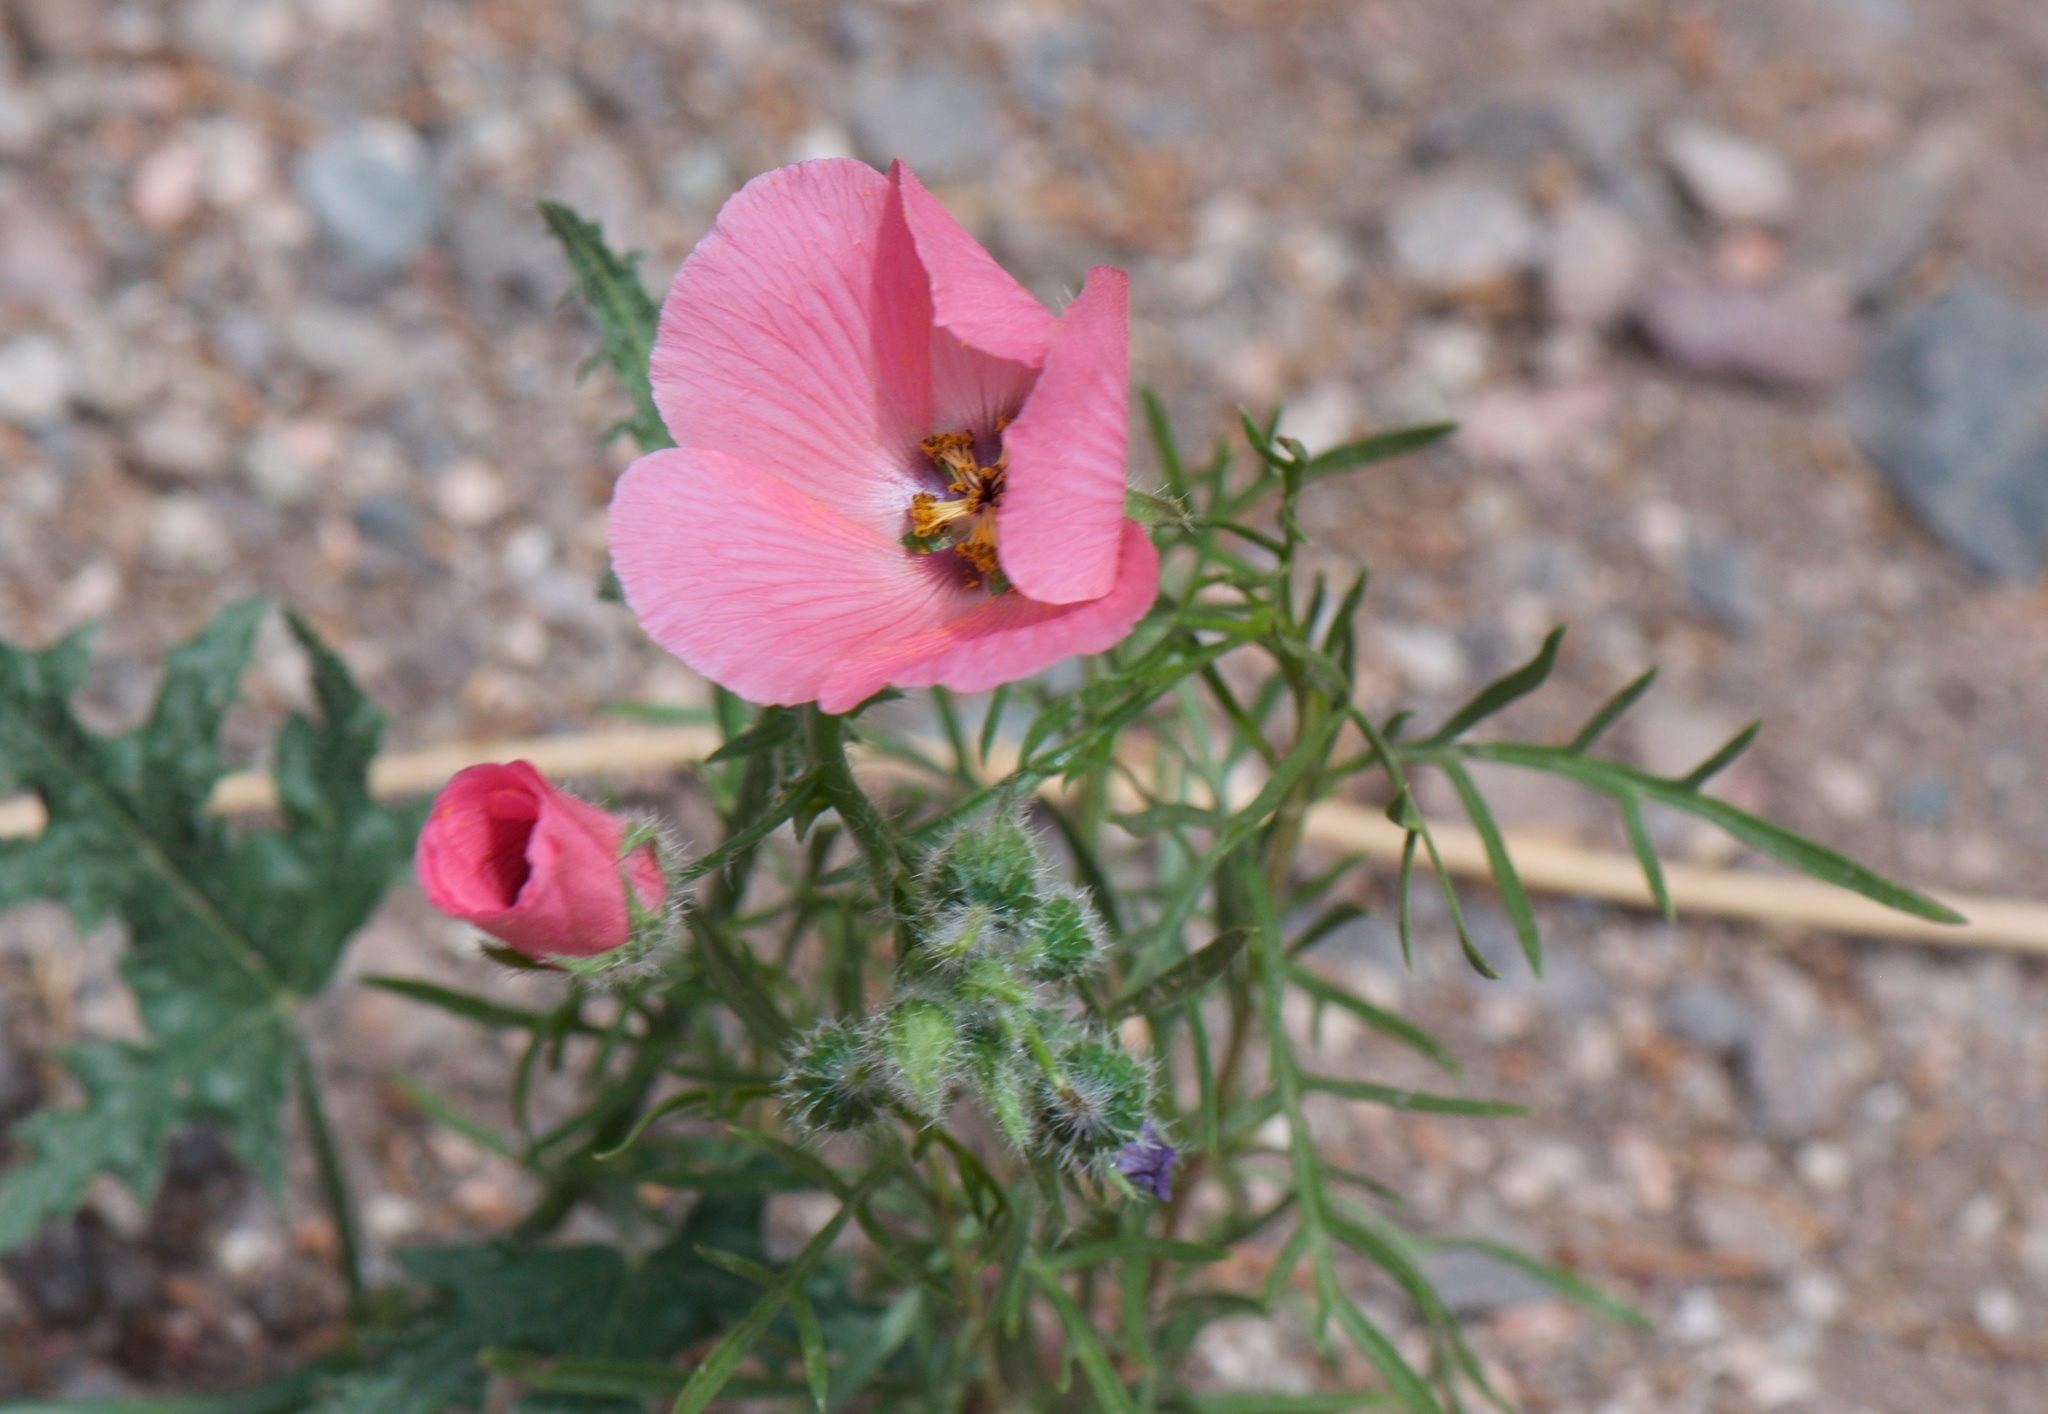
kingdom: Plantae
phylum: Tracheophyta
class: Magnoliopsida
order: Malvales
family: Malvaceae
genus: Lecanophora
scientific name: Lecanophora heterophylla
